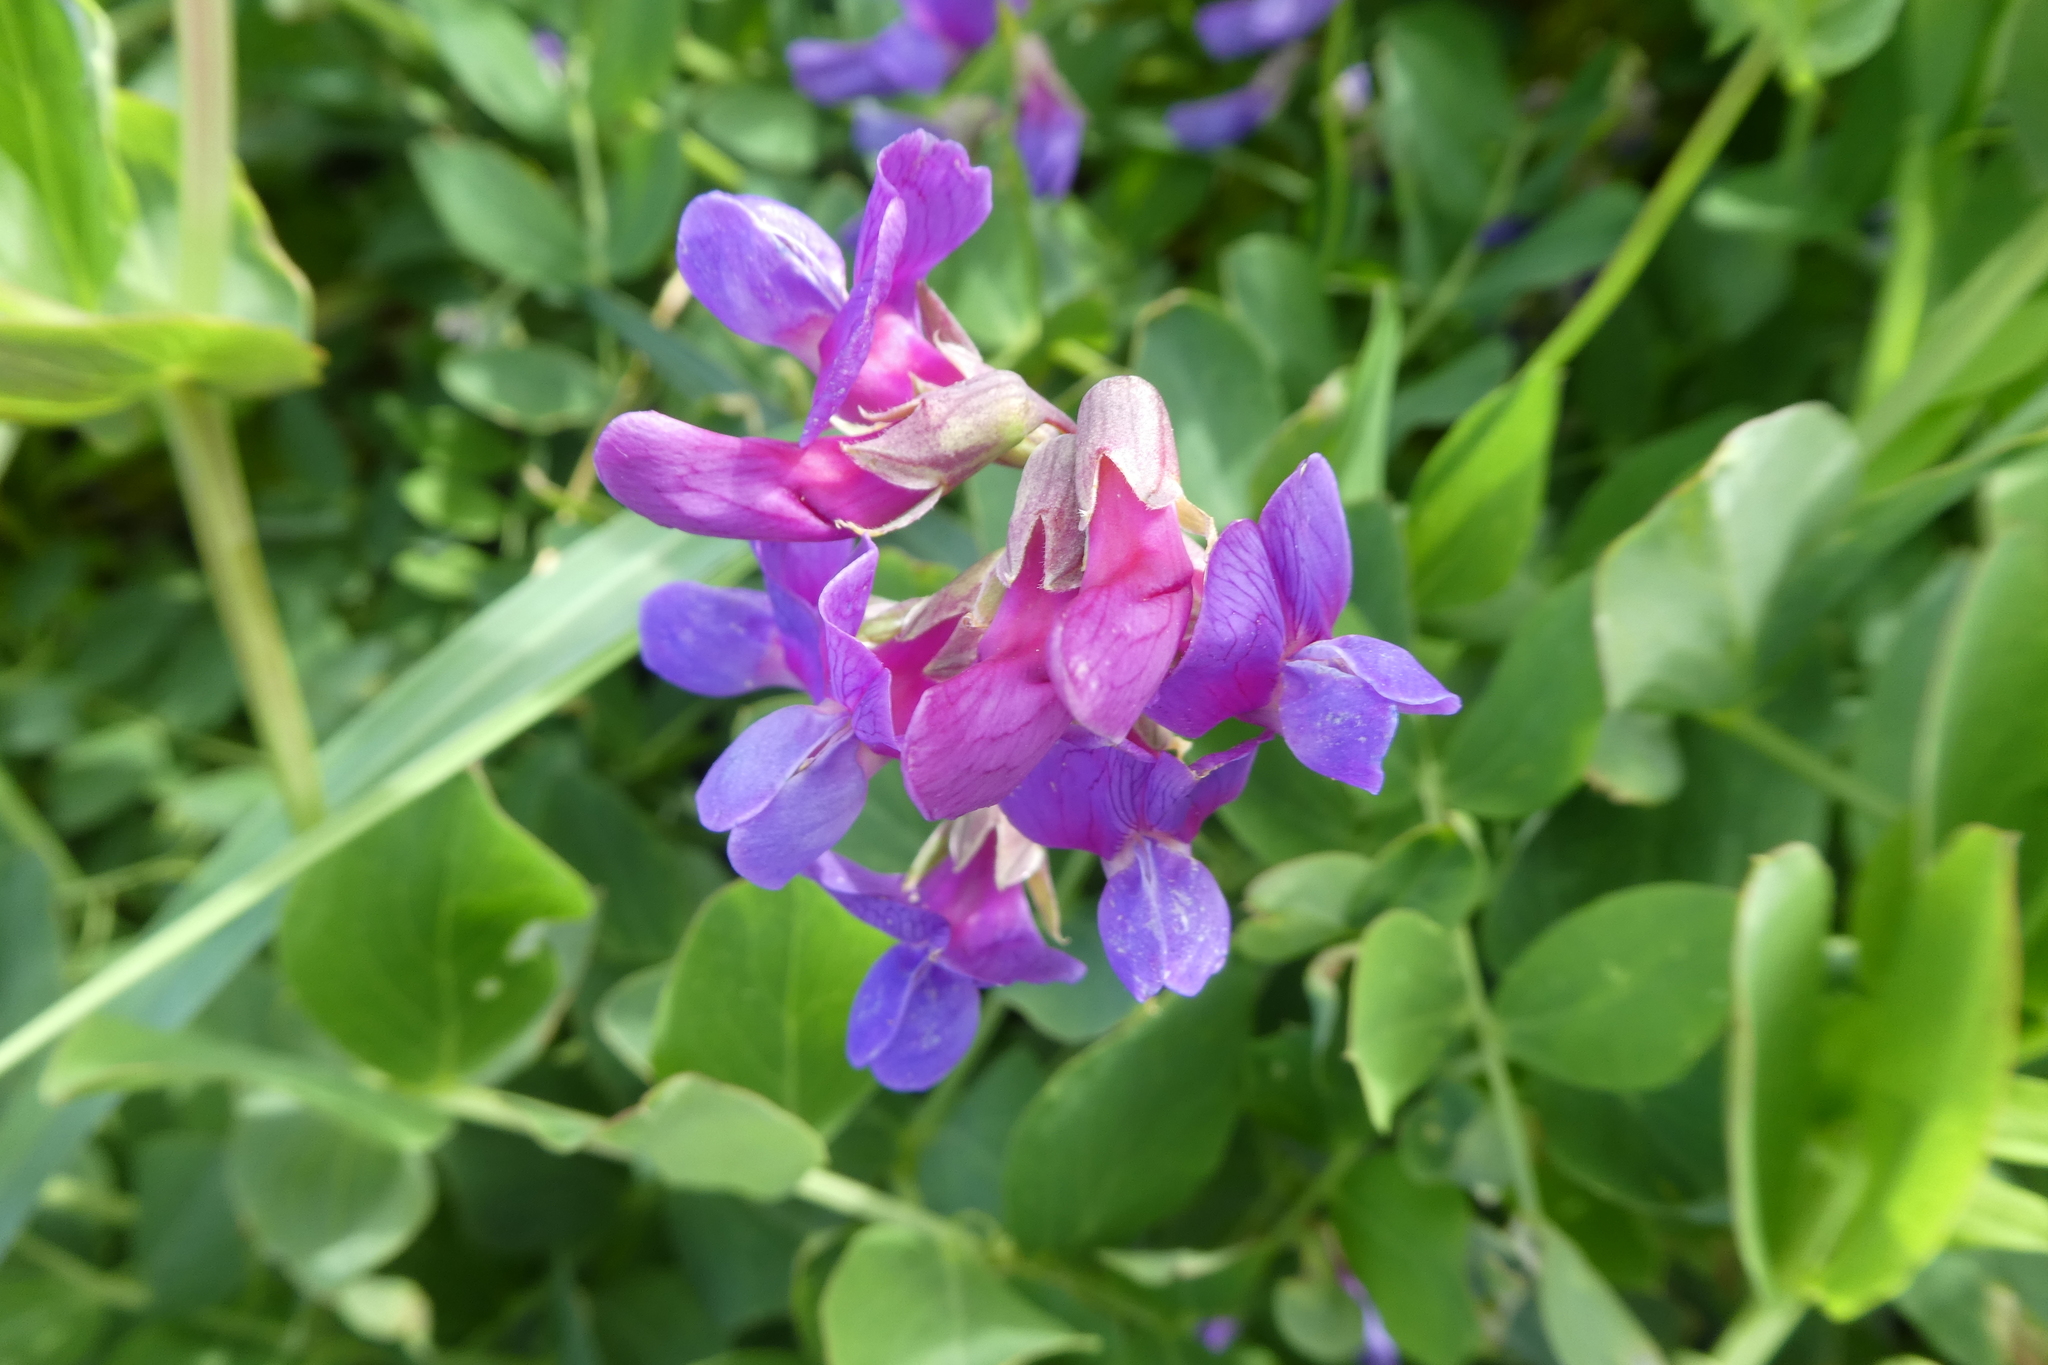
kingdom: Plantae
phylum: Tracheophyta
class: Magnoliopsida
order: Fabales
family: Fabaceae
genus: Lathyrus
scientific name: Lathyrus japonicus
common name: Sea pea
